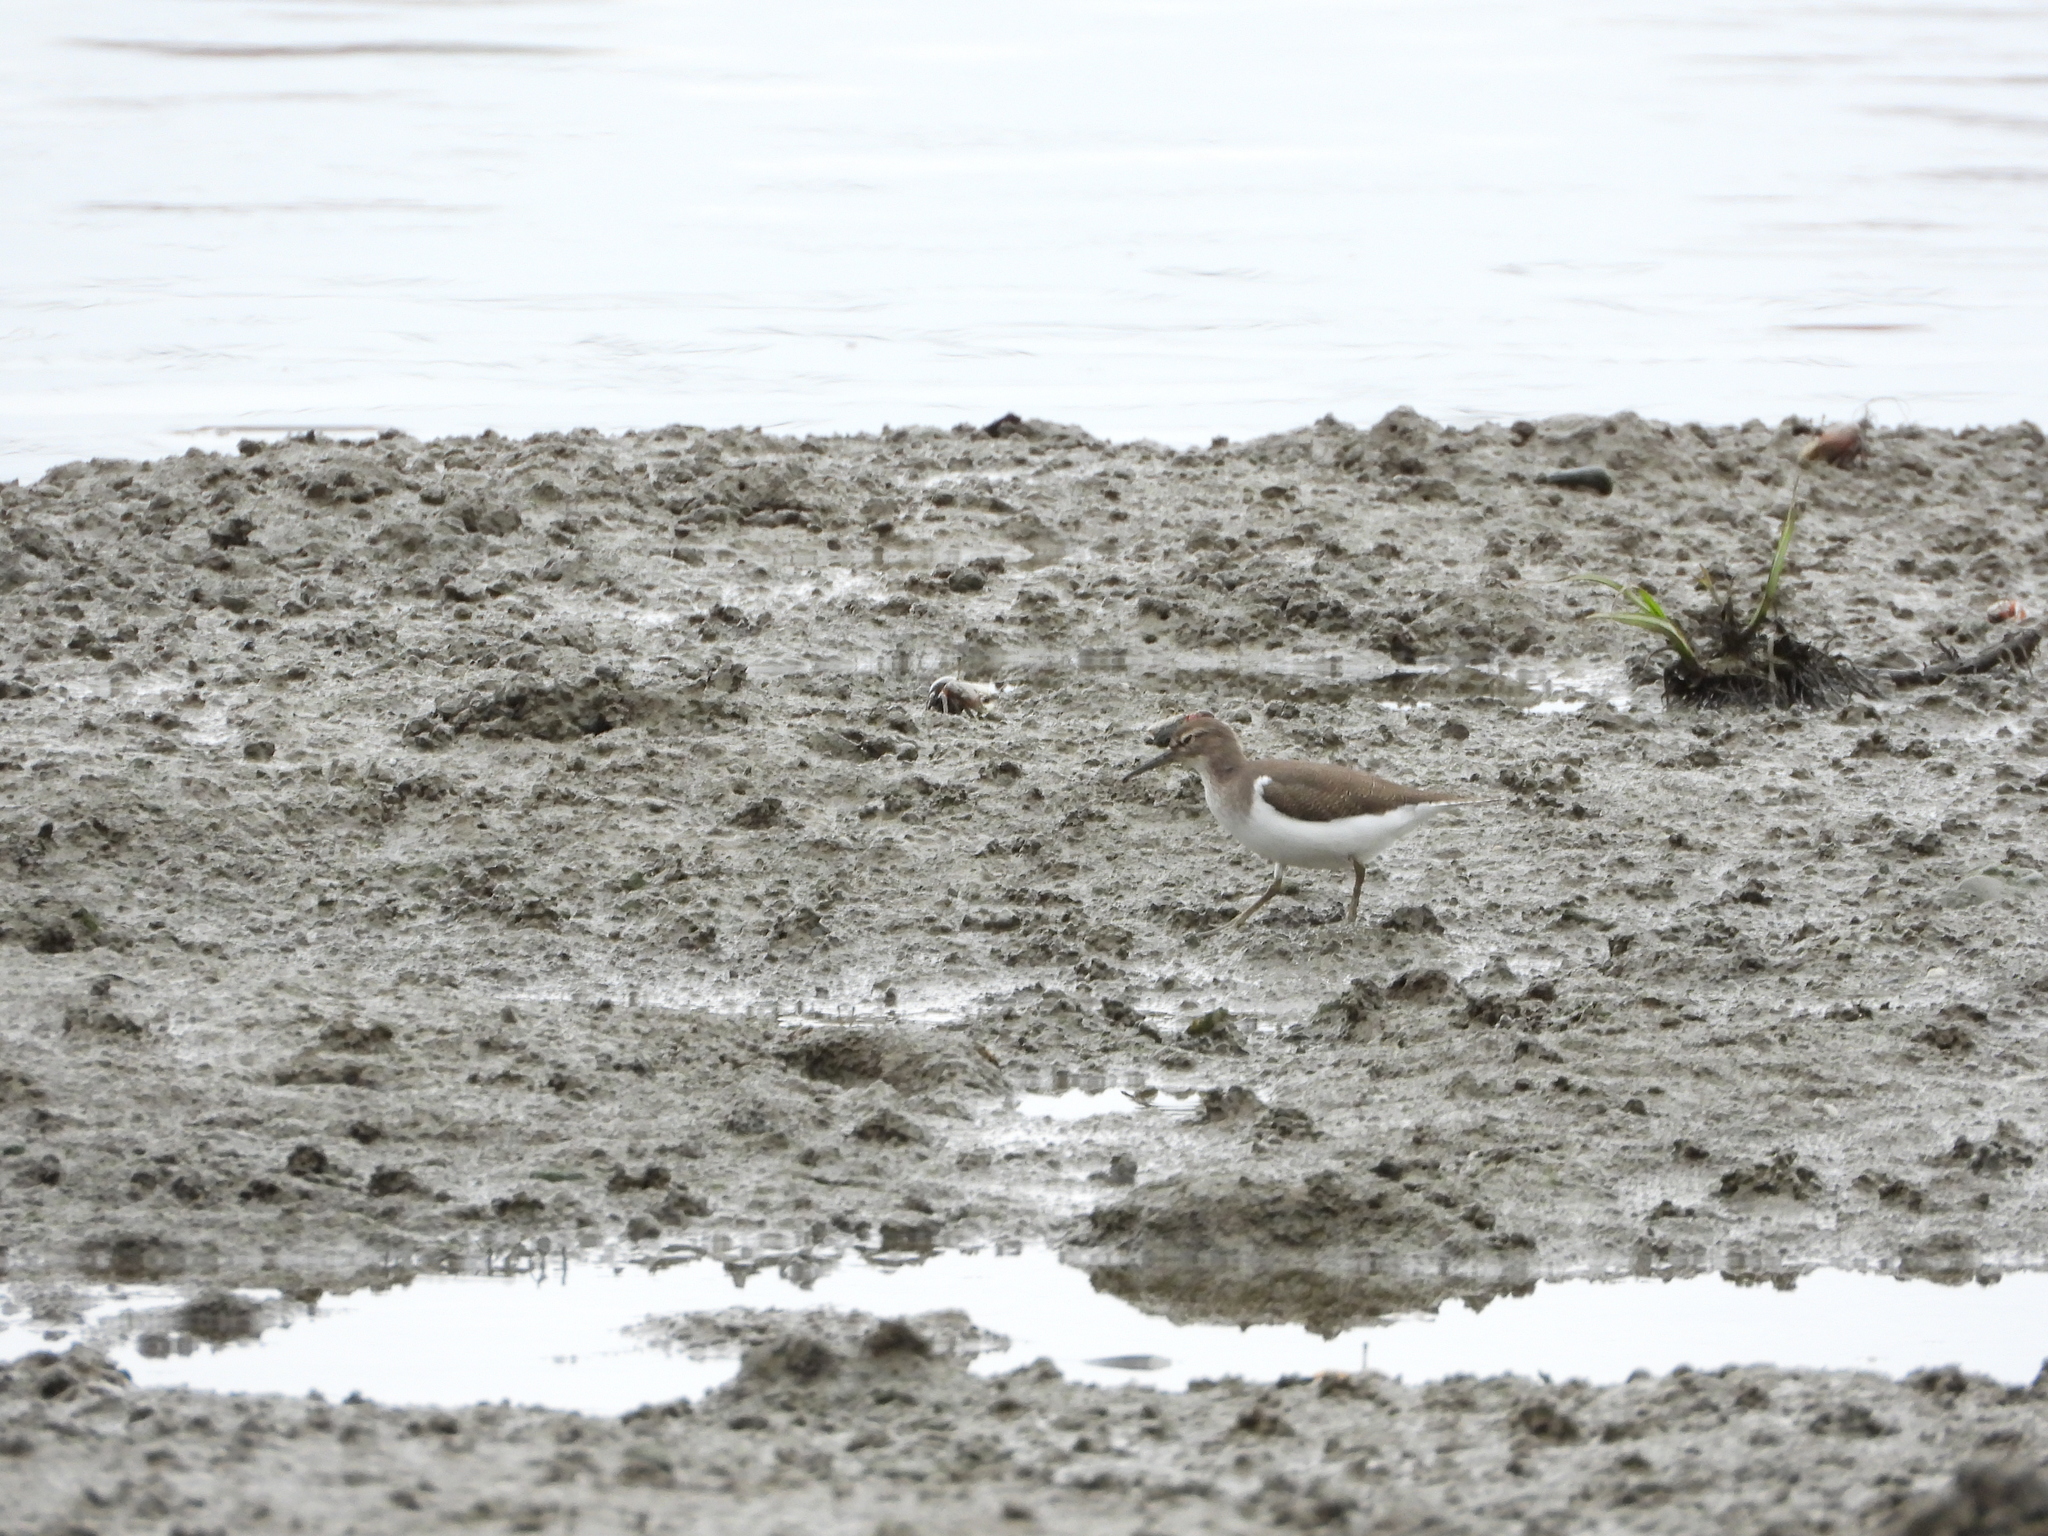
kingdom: Animalia
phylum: Chordata
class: Aves
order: Charadriiformes
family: Scolopacidae
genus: Actitis
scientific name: Actitis hypoleucos
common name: Common sandpiper
